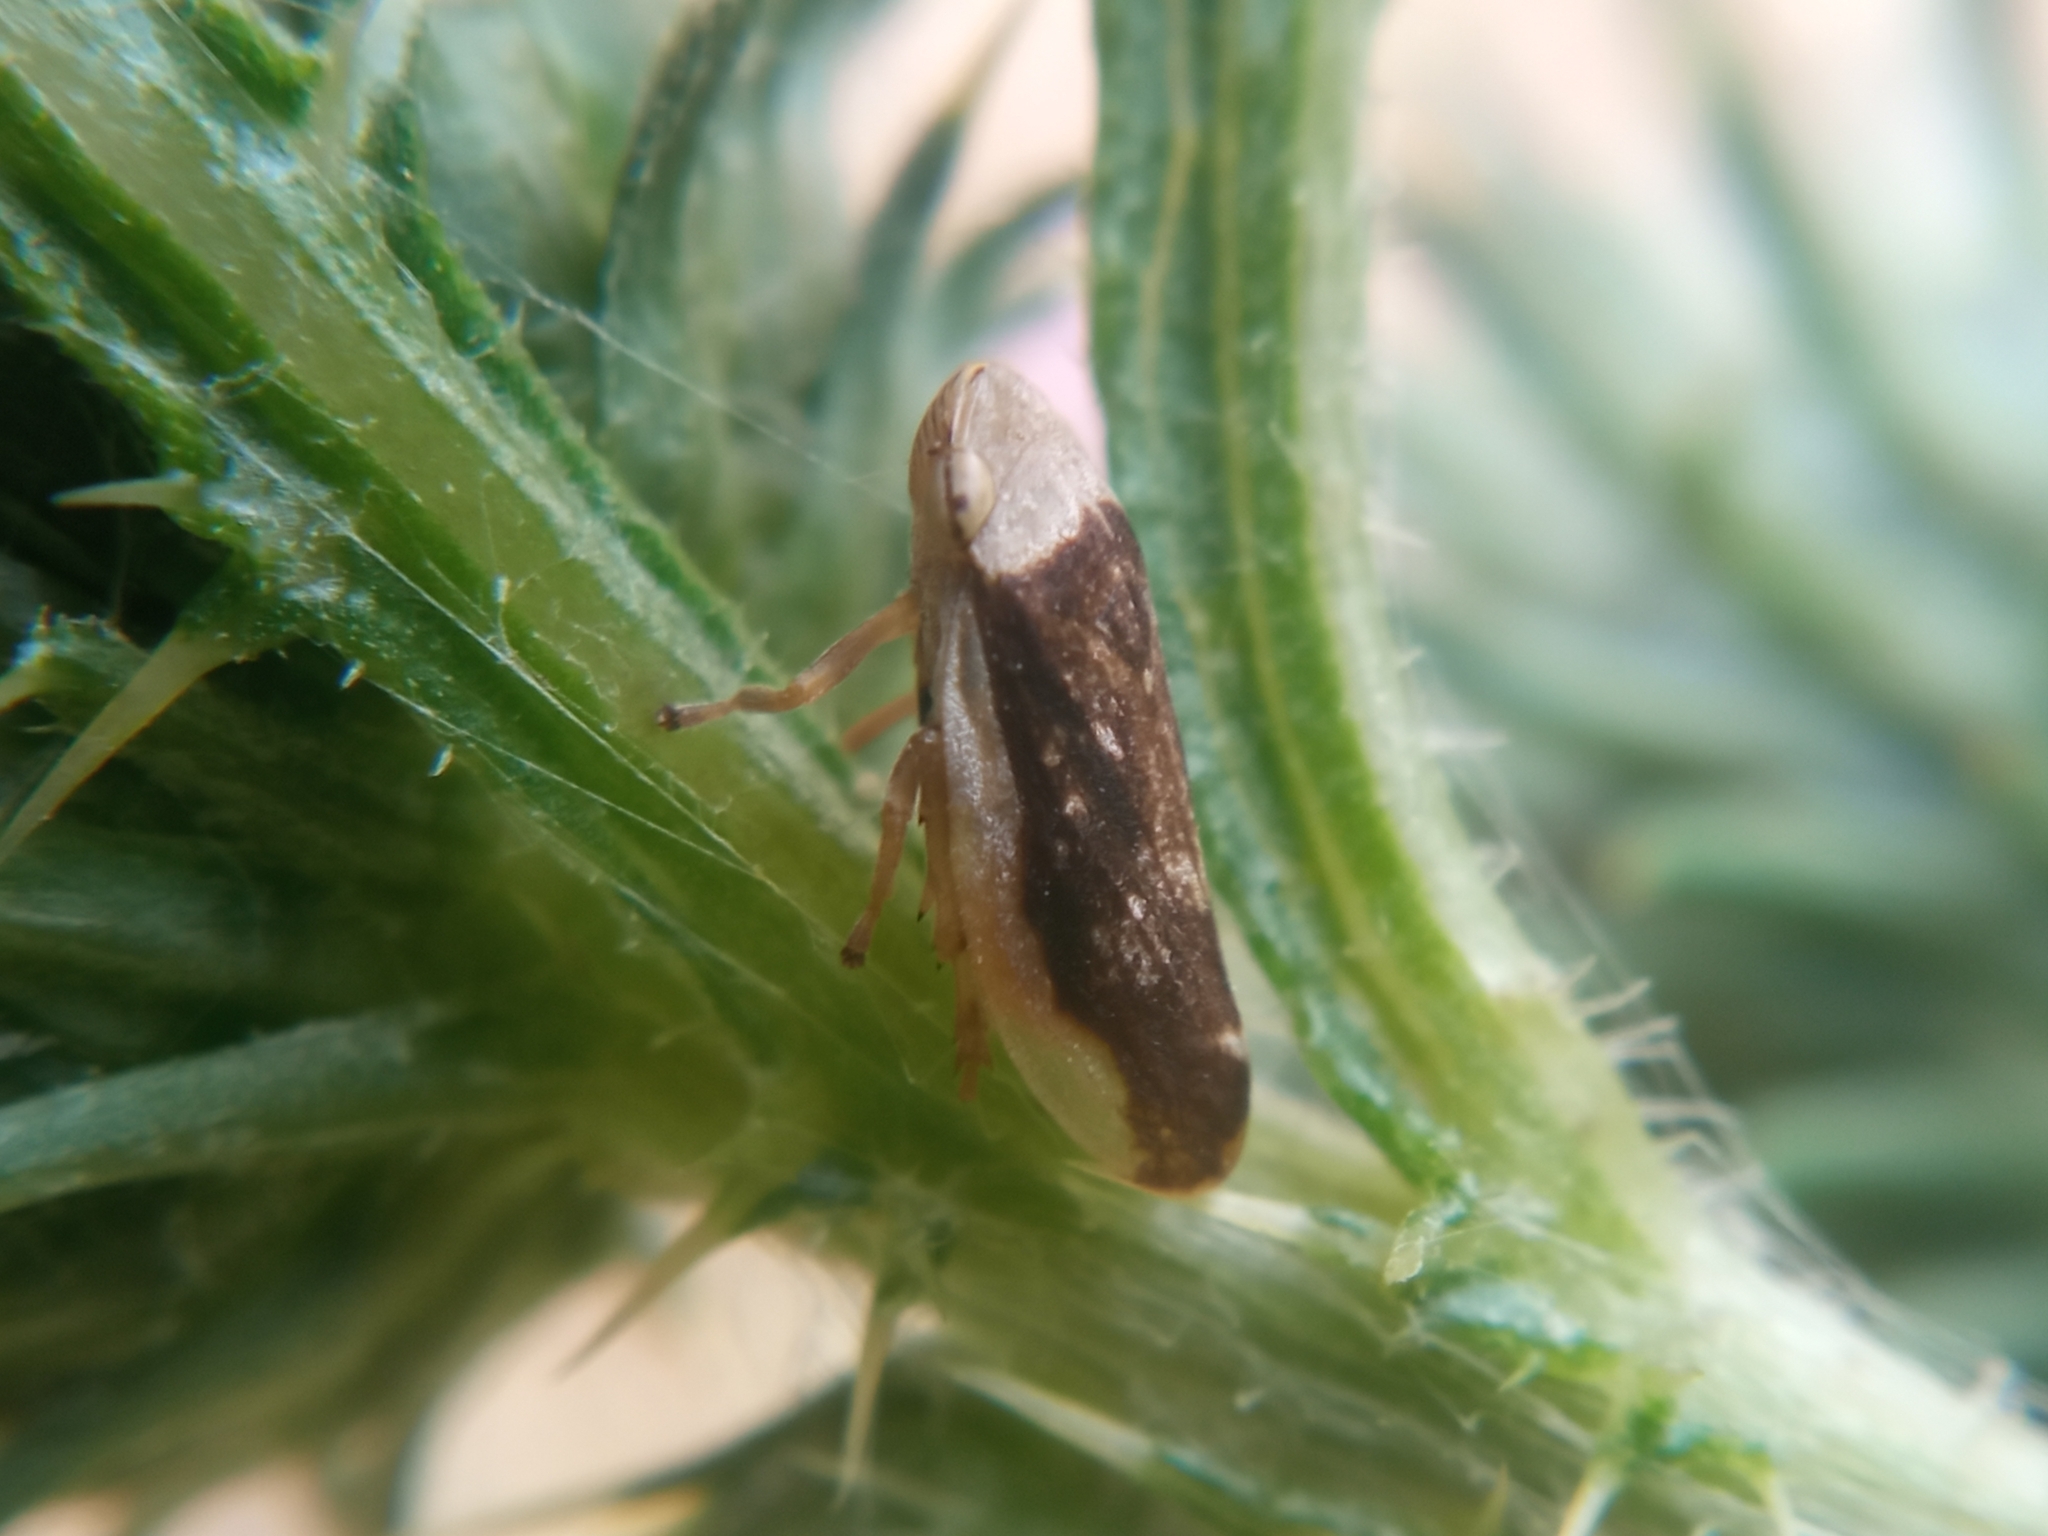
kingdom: Animalia
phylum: Arthropoda
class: Insecta
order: Hemiptera
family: Aphrophoridae
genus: Philaenus
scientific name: Philaenus spumarius
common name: Meadow spittlebug
